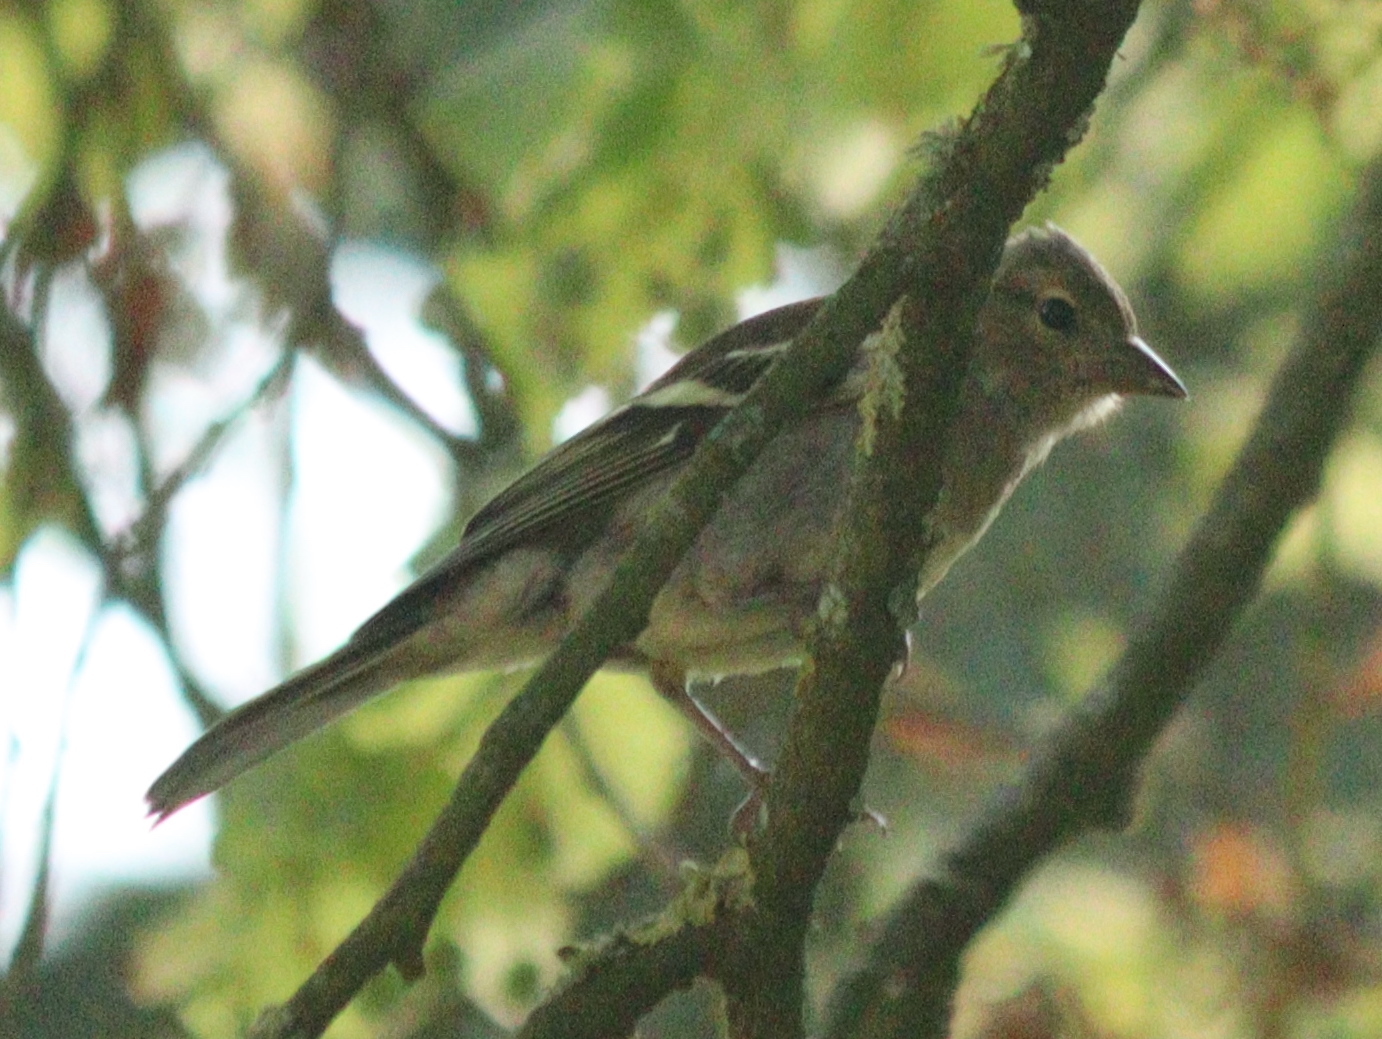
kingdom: Animalia
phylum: Chordata
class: Aves
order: Passeriformes
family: Fringillidae
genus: Fringilla
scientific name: Fringilla coelebs
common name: Common chaffinch
